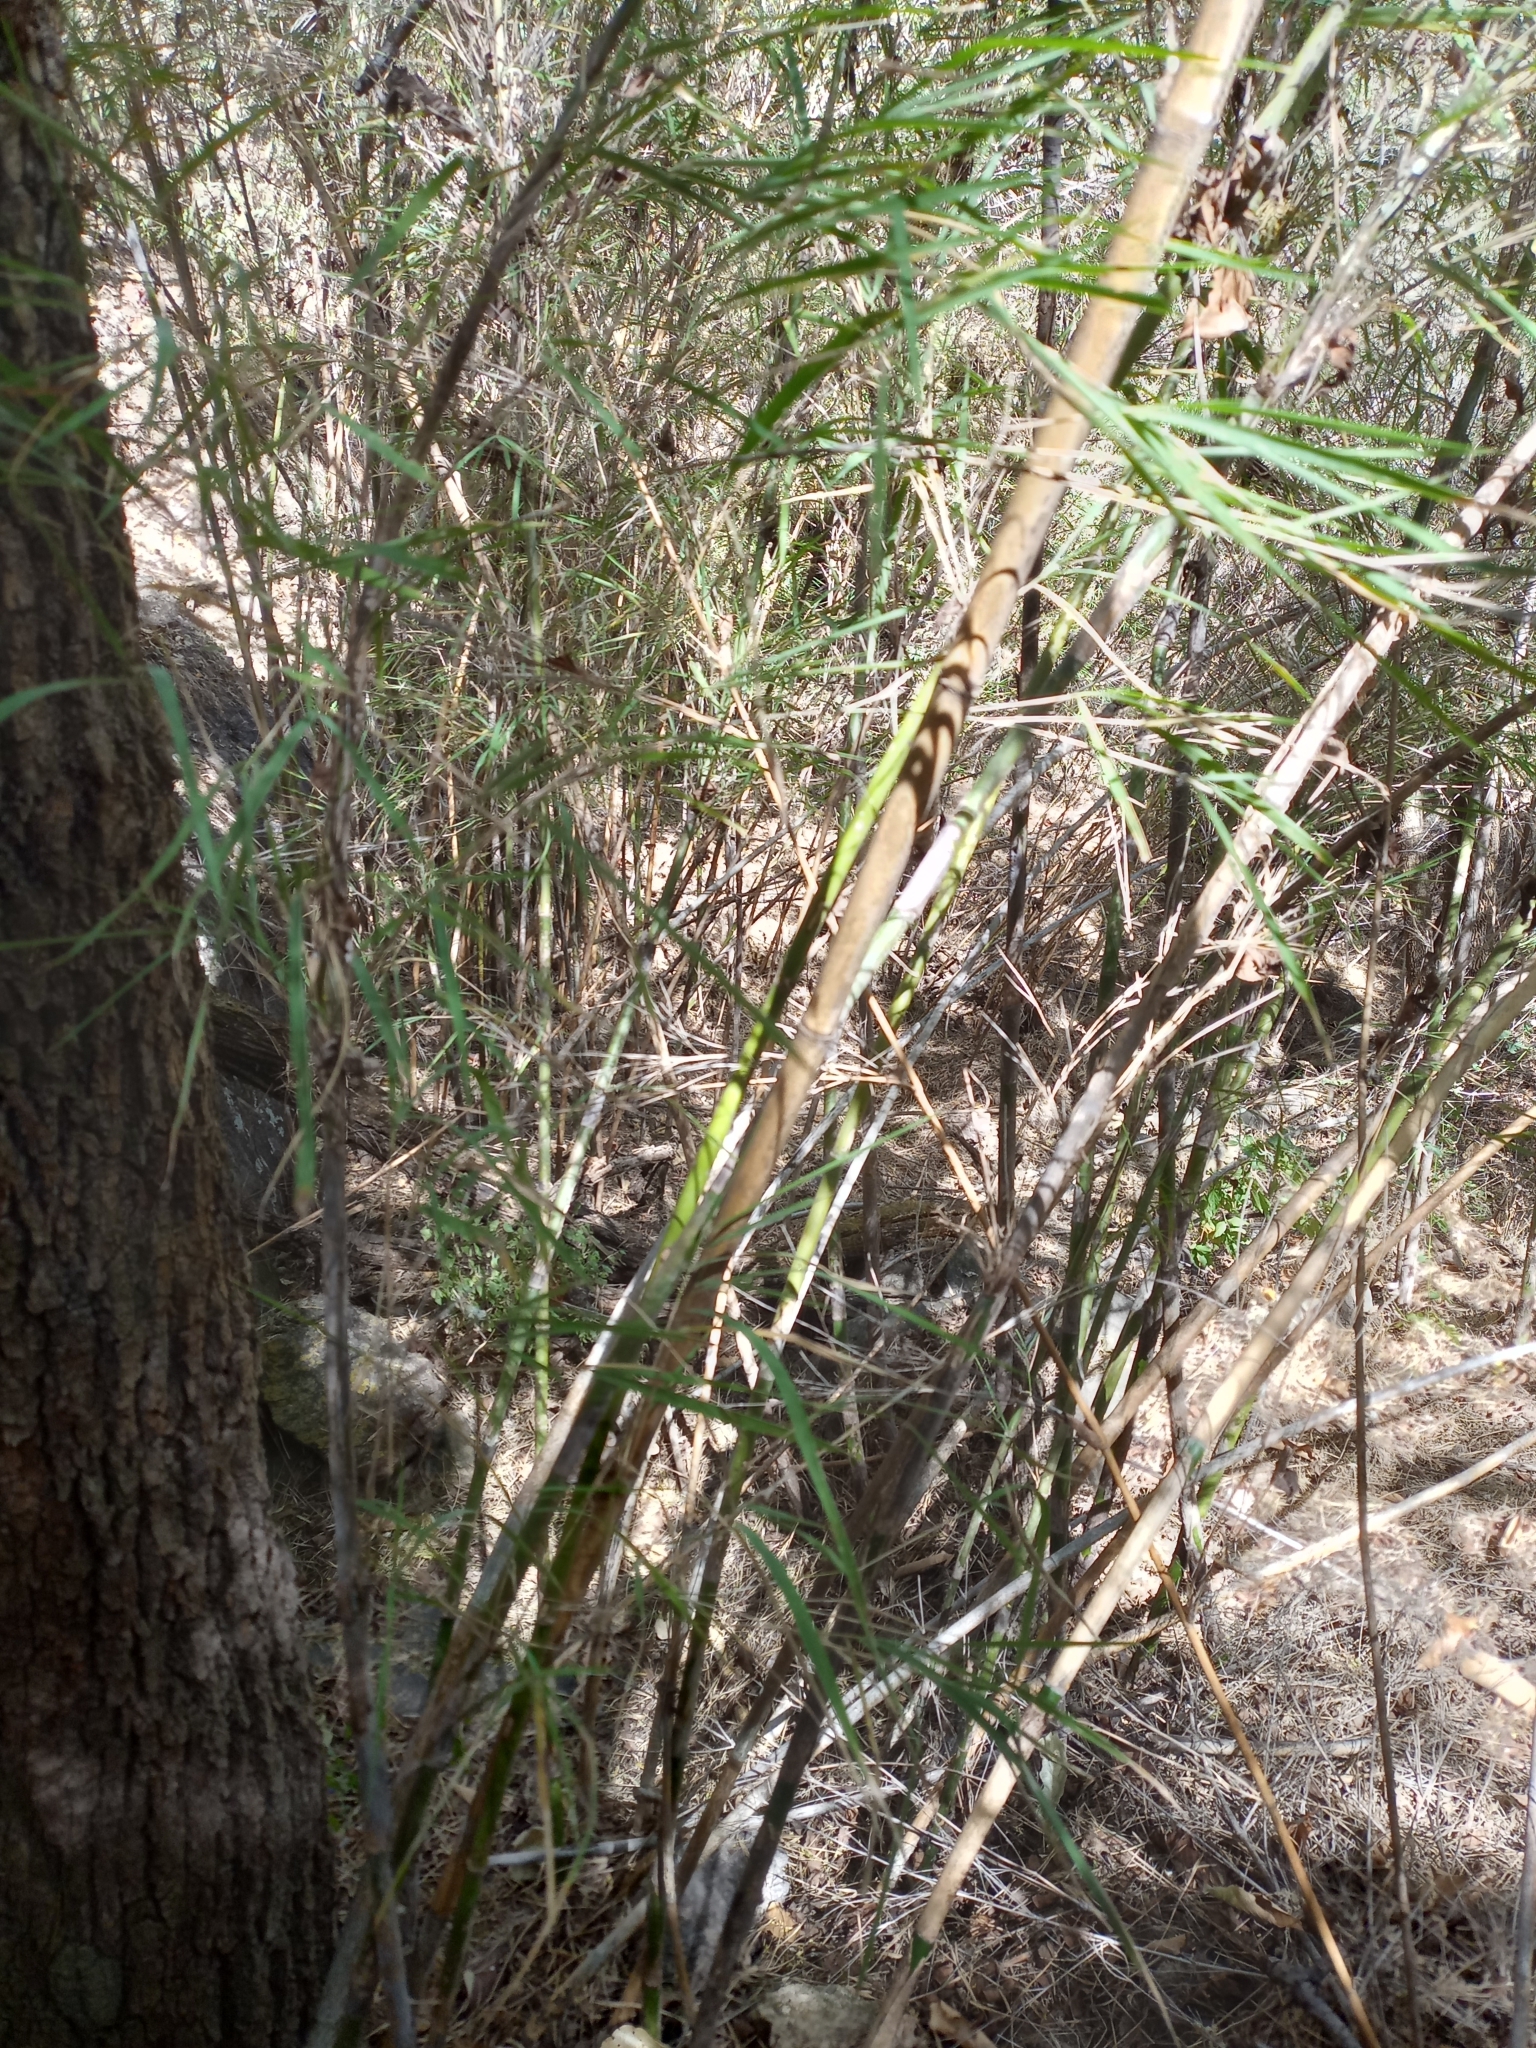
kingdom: Plantae
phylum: Tracheophyta
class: Liliopsida
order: Poales
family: Poaceae
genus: Otatea
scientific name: Otatea acuminata
